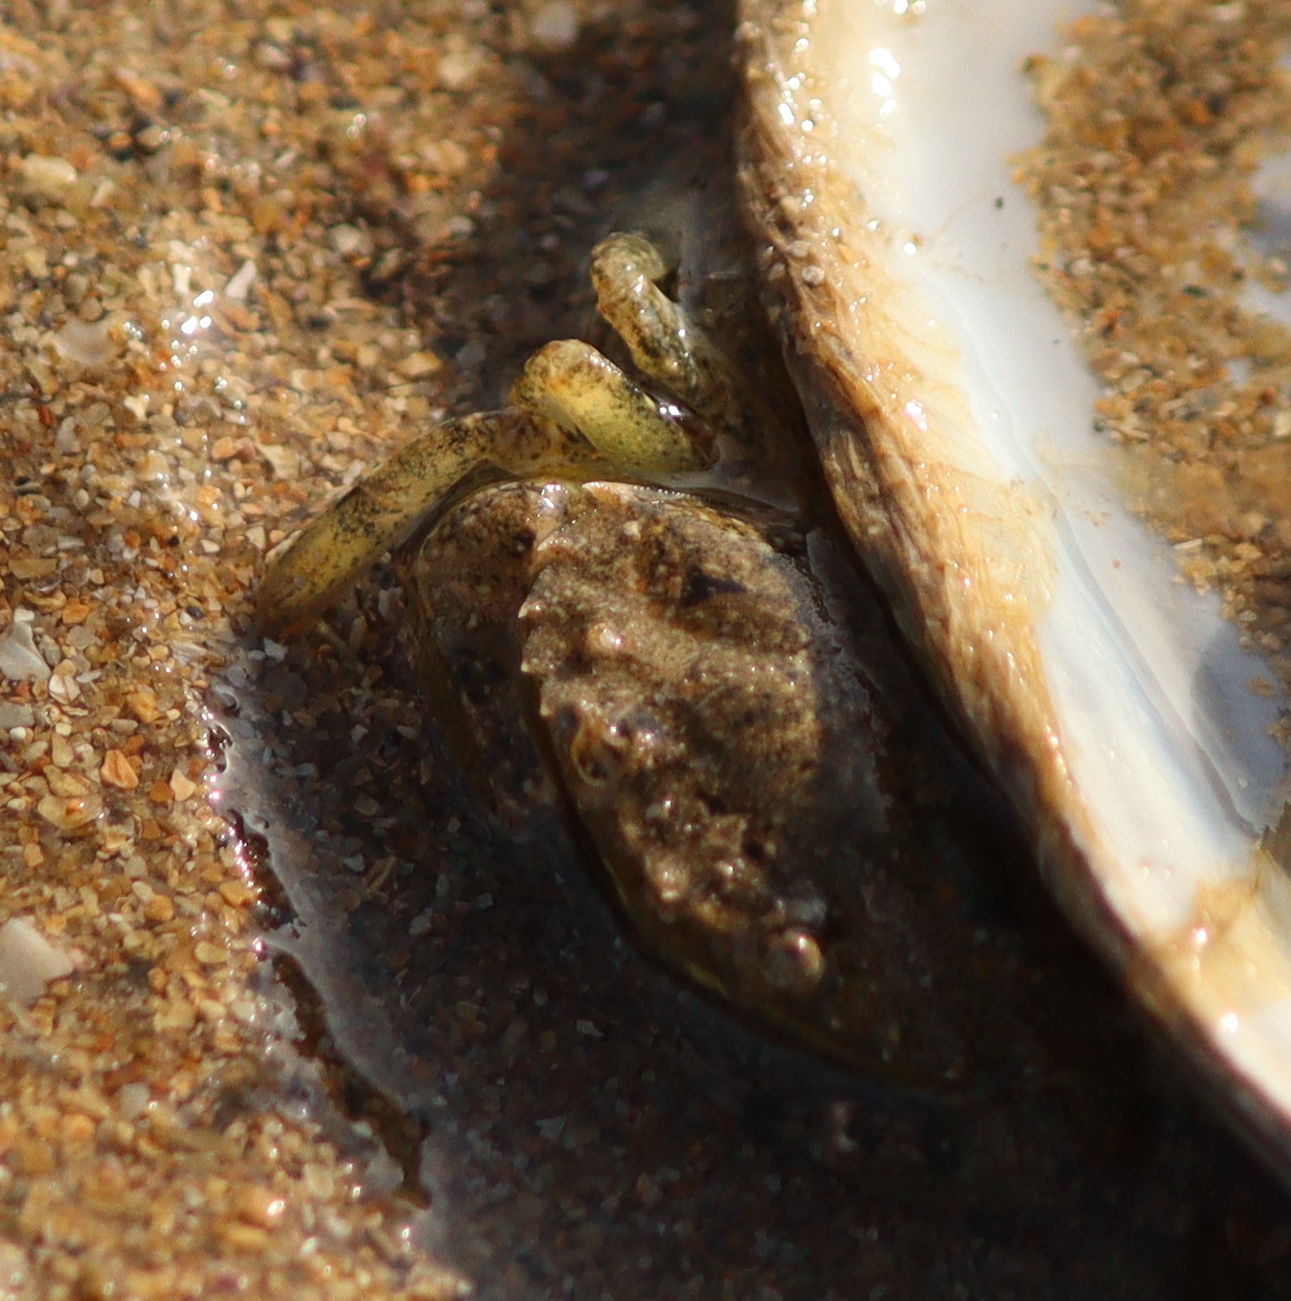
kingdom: Animalia
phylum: Arthropoda
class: Malacostraca
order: Decapoda
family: Carcinidae
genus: Carcinus
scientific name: Carcinus maenas
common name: European green crab
